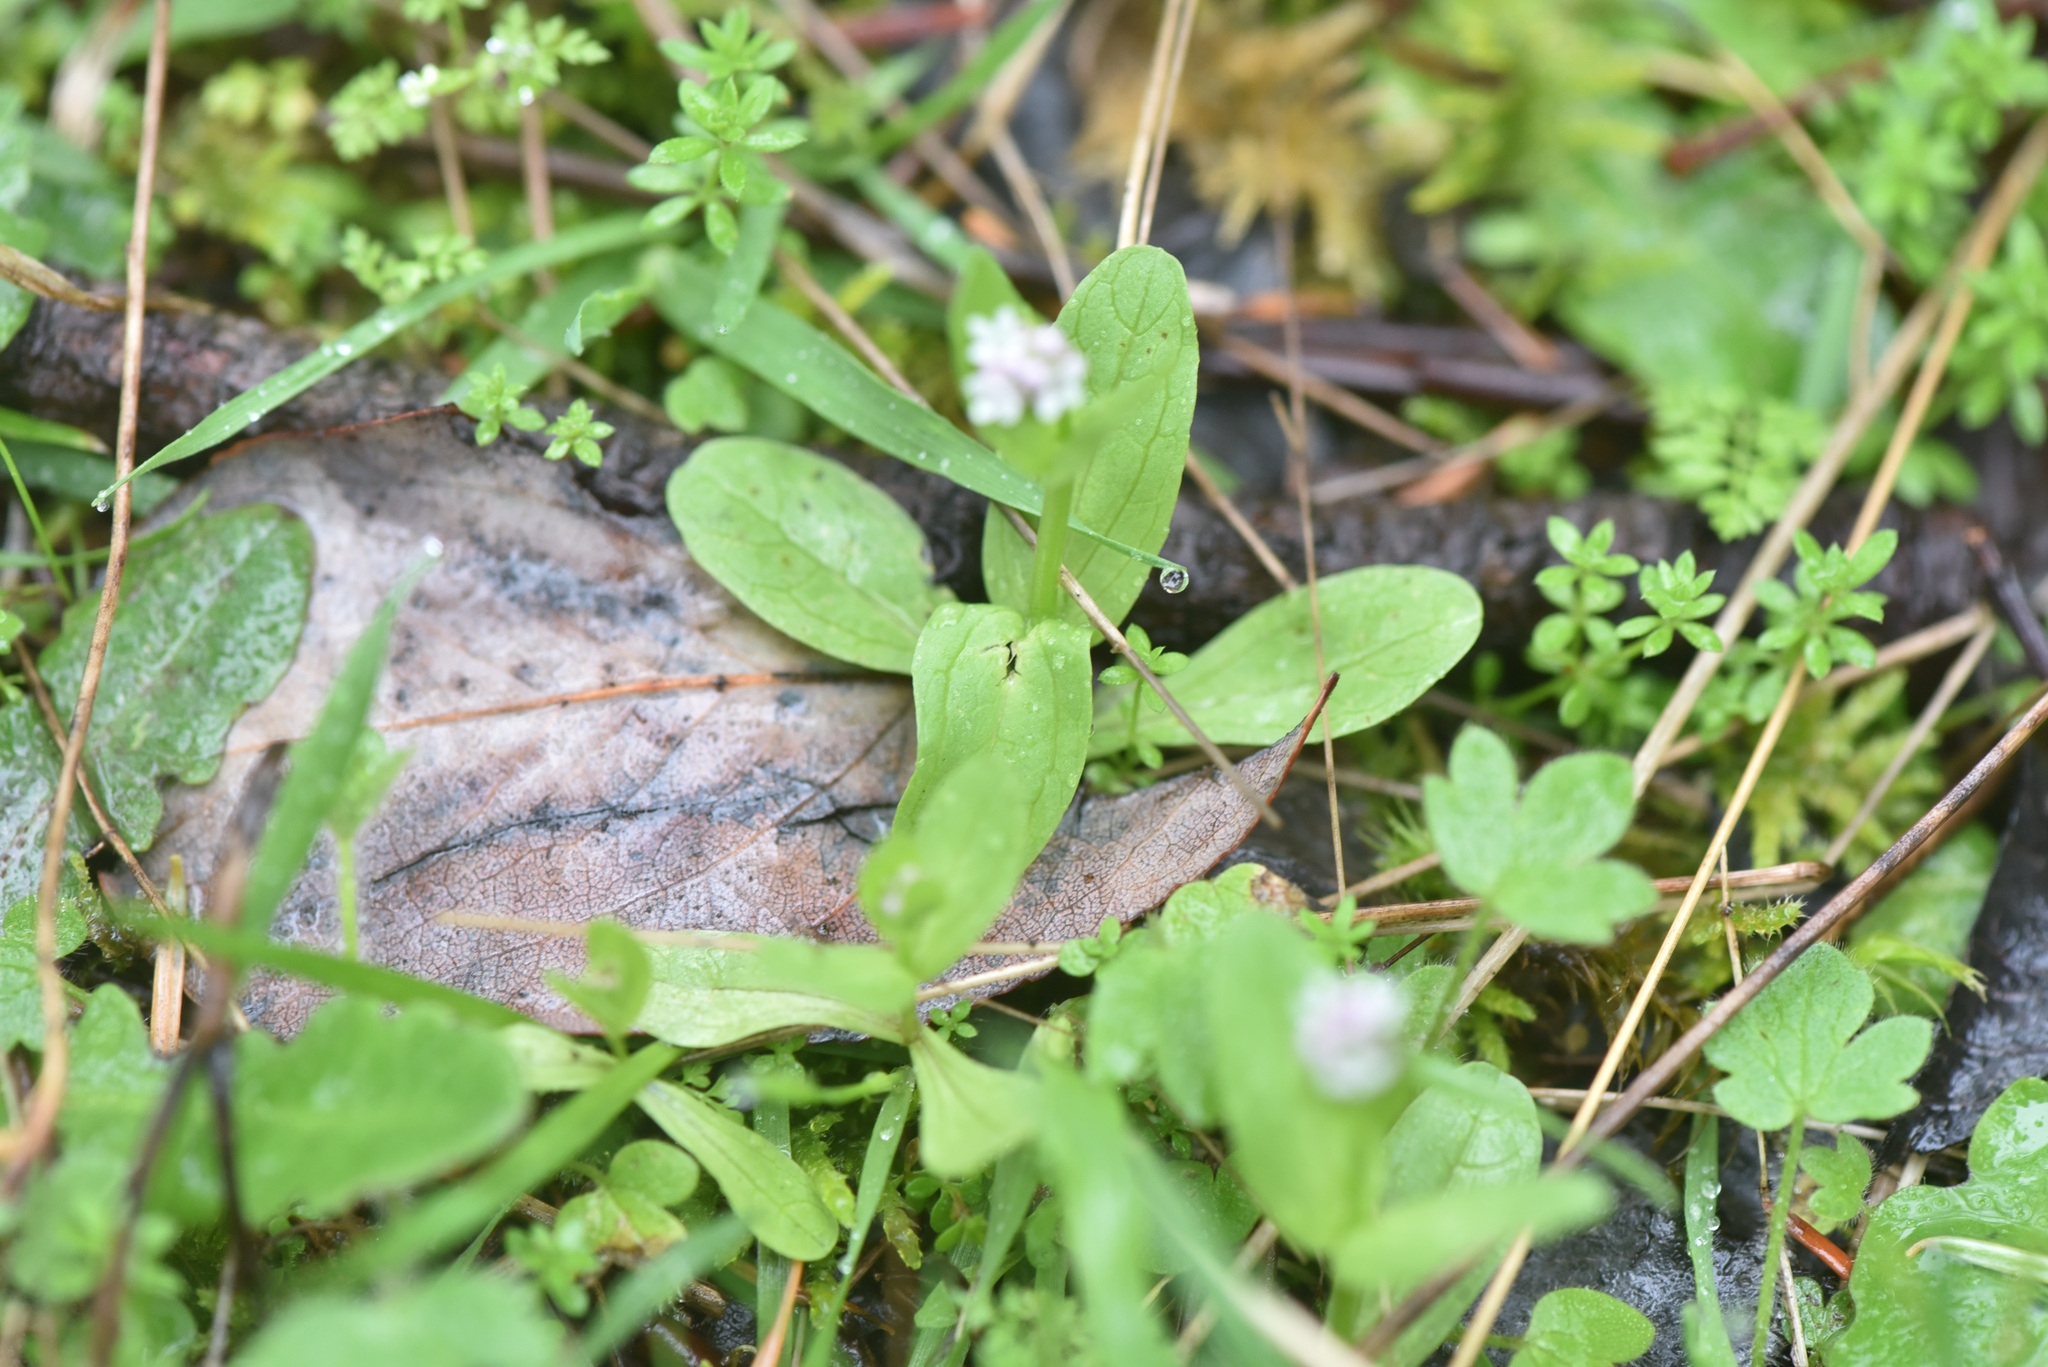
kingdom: Plantae
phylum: Tracheophyta
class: Magnoliopsida
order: Dipsacales
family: Caprifoliaceae
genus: Plectritis
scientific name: Plectritis congesta
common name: Pink plectritis
